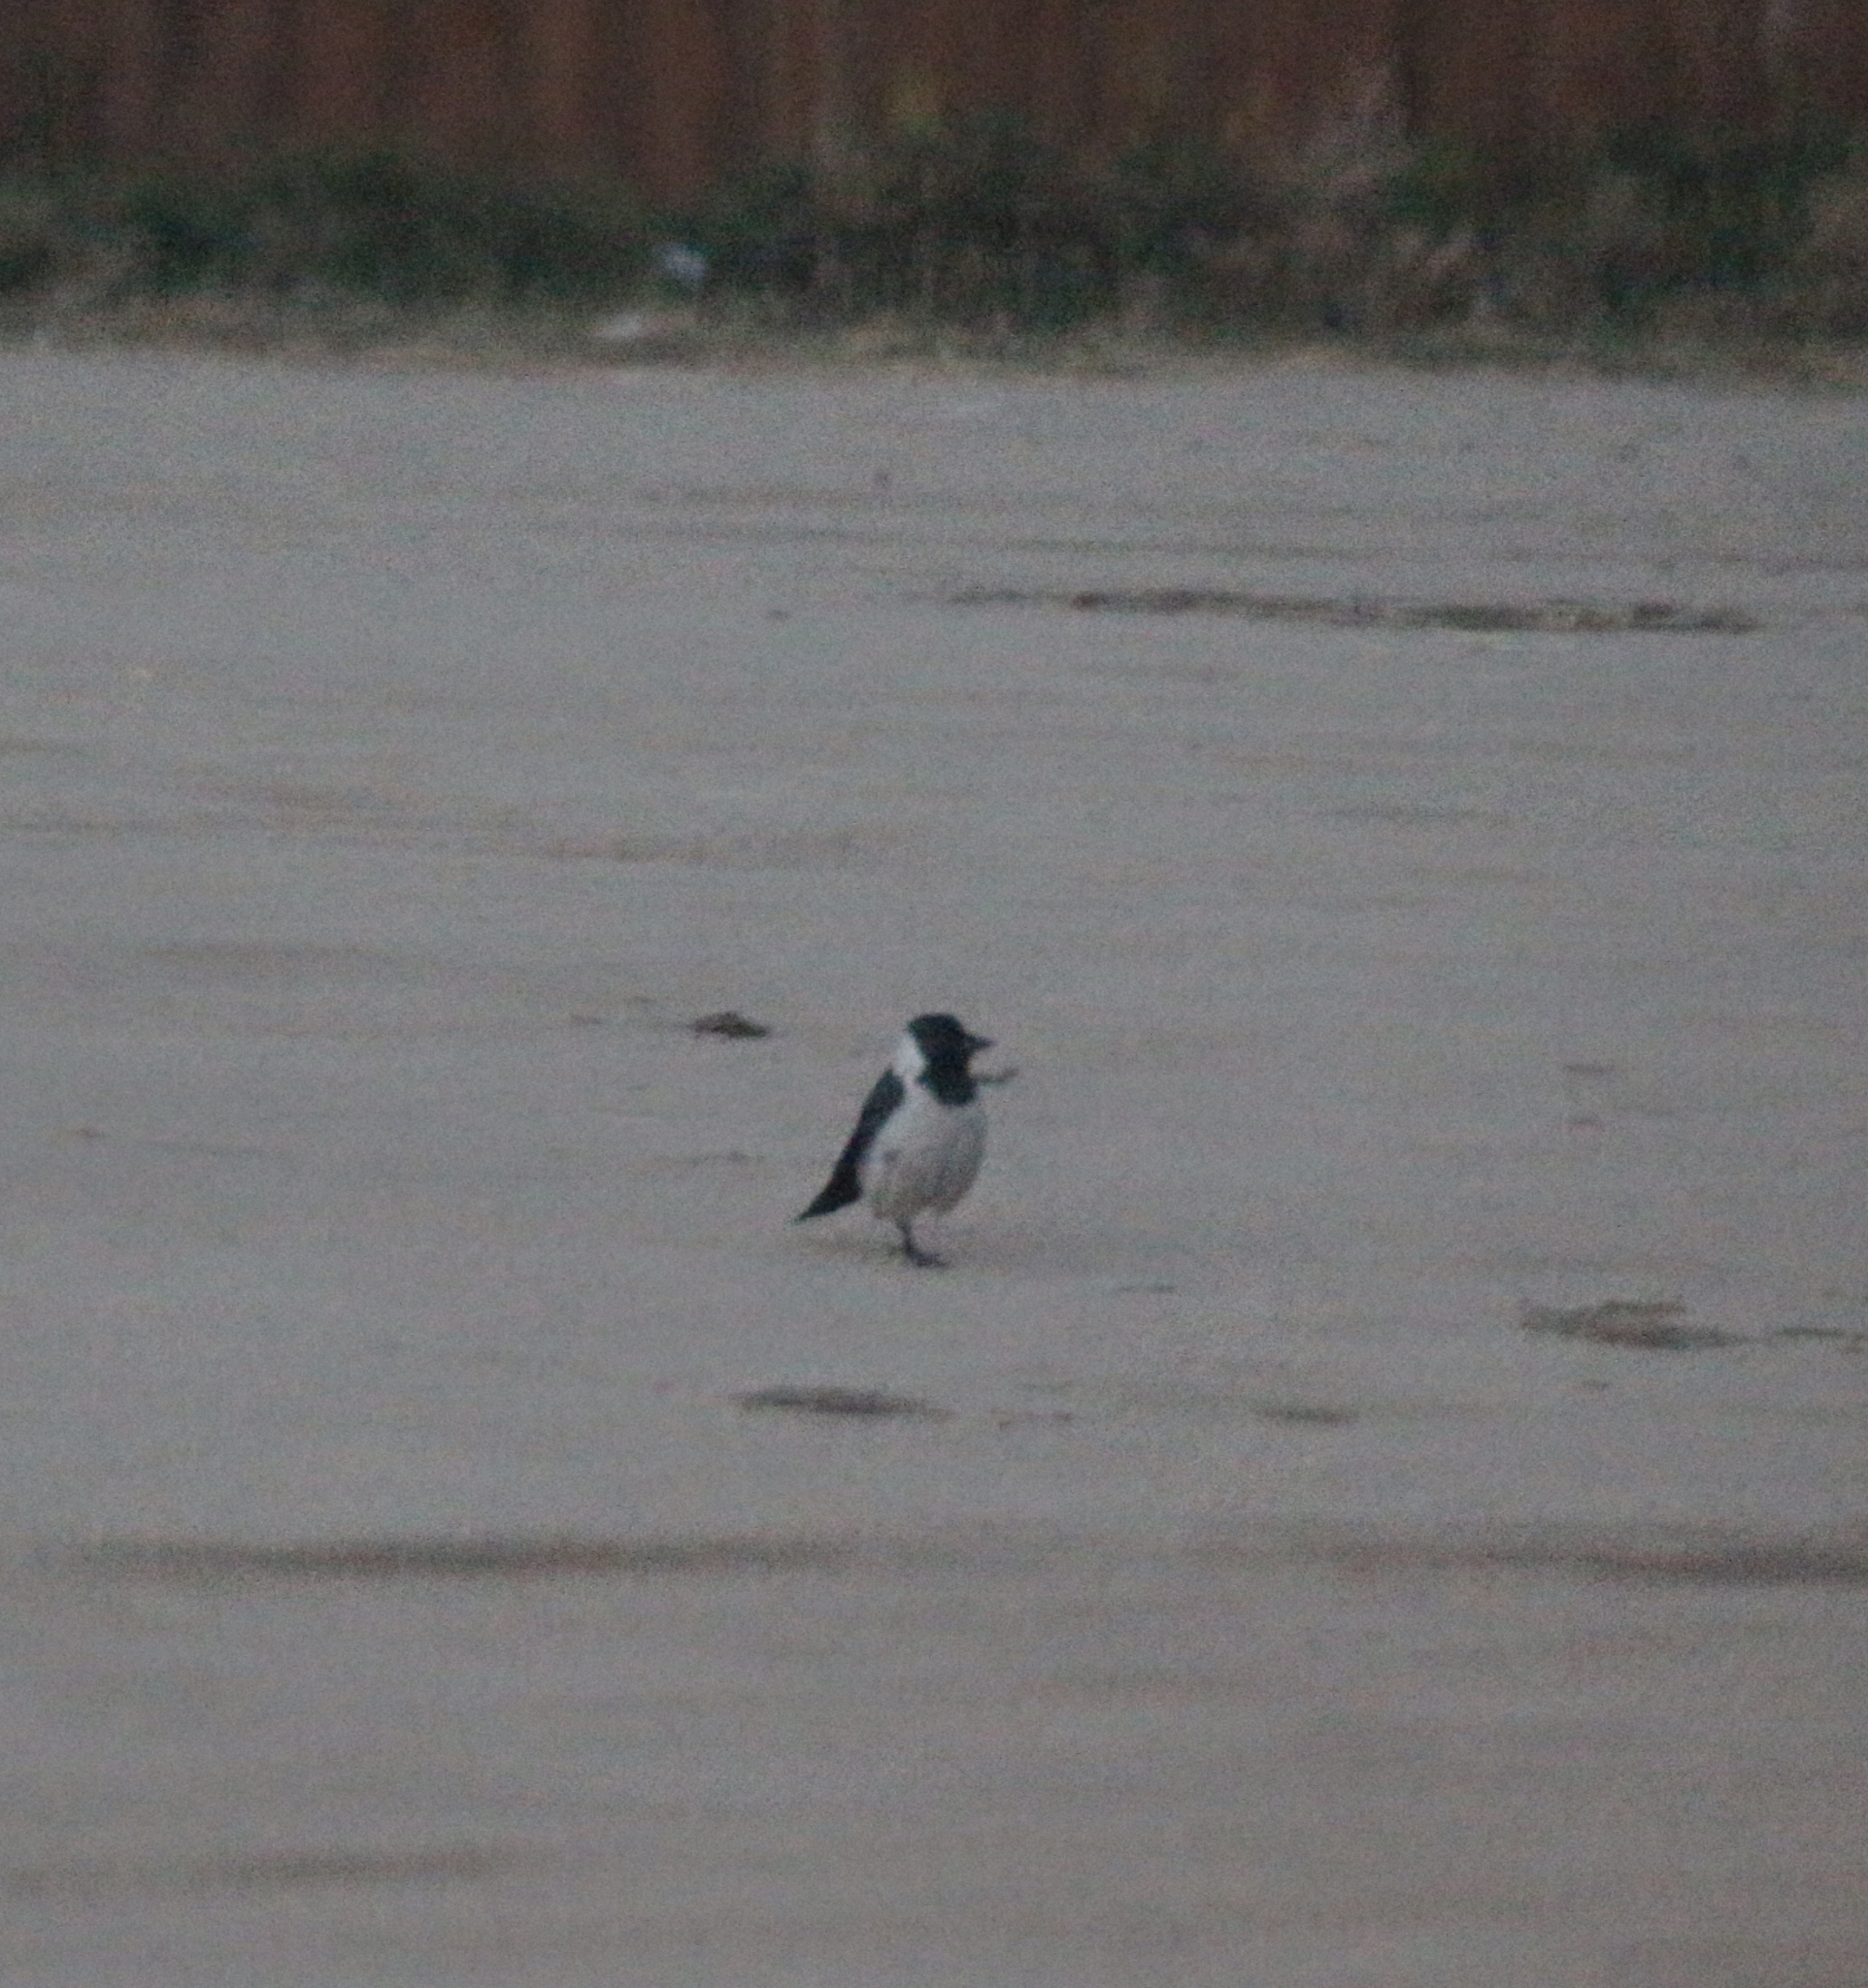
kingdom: Animalia
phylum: Chordata
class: Aves
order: Passeriformes
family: Corvidae
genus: Coloeus
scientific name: Coloeus dauuricus
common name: Daurian jackdaw
